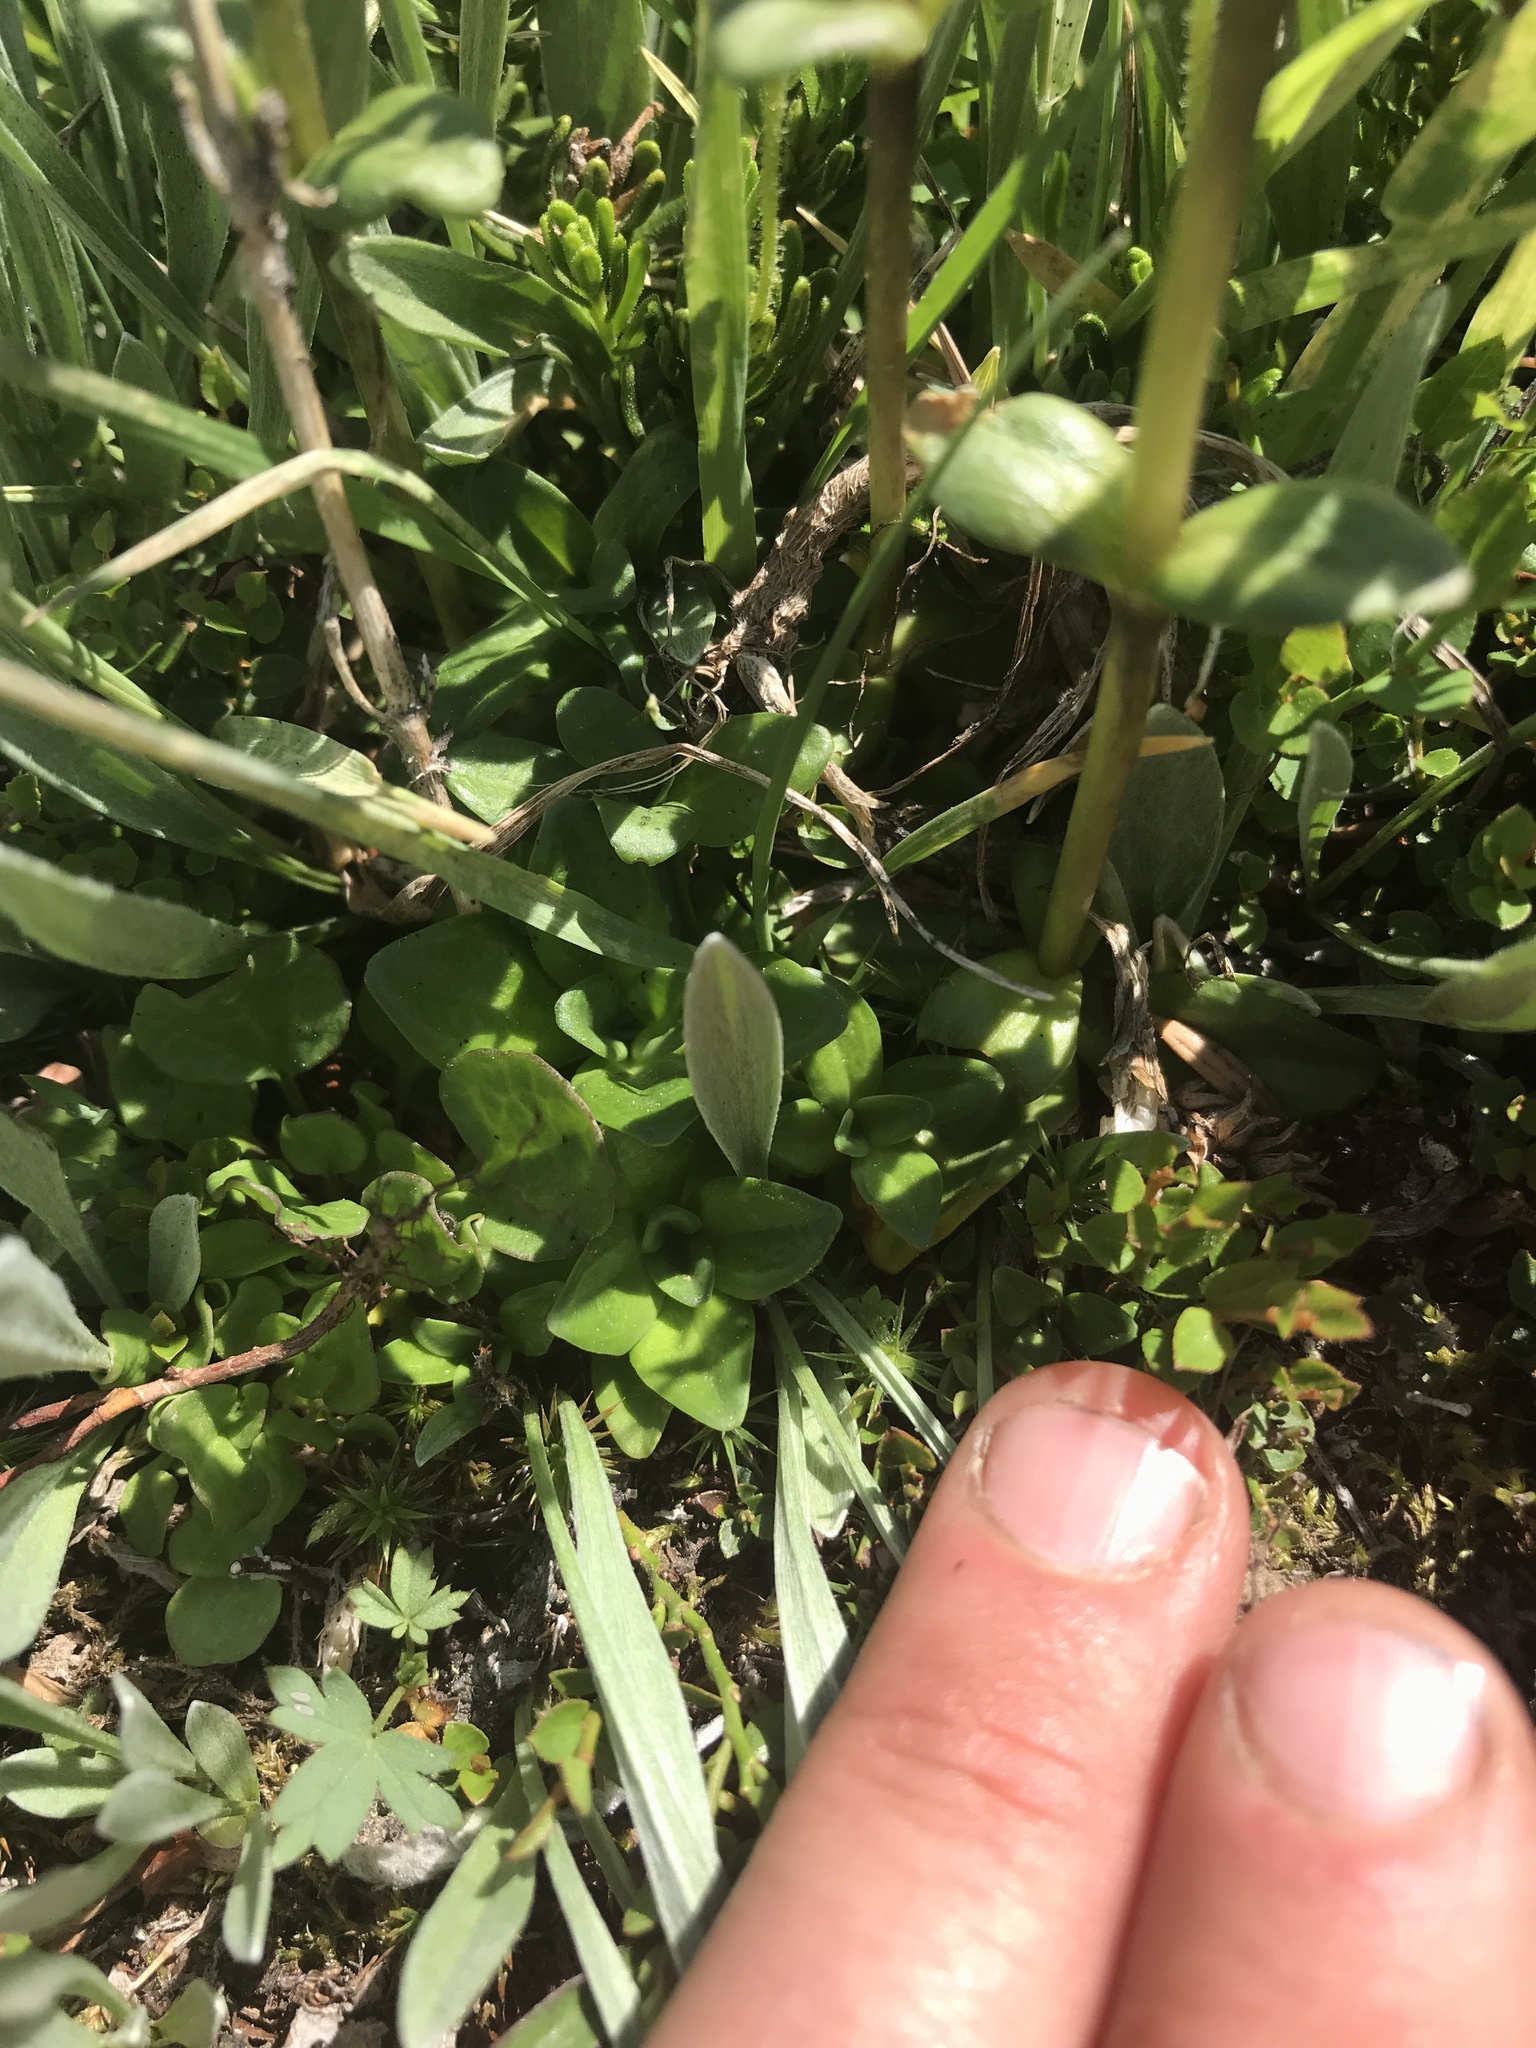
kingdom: Plantae
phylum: Tracheophyta
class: Magnoliopsida
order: Gentianales
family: Gentianaceae
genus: Gentiana
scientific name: Gentiana glauca
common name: Alpine gentian
